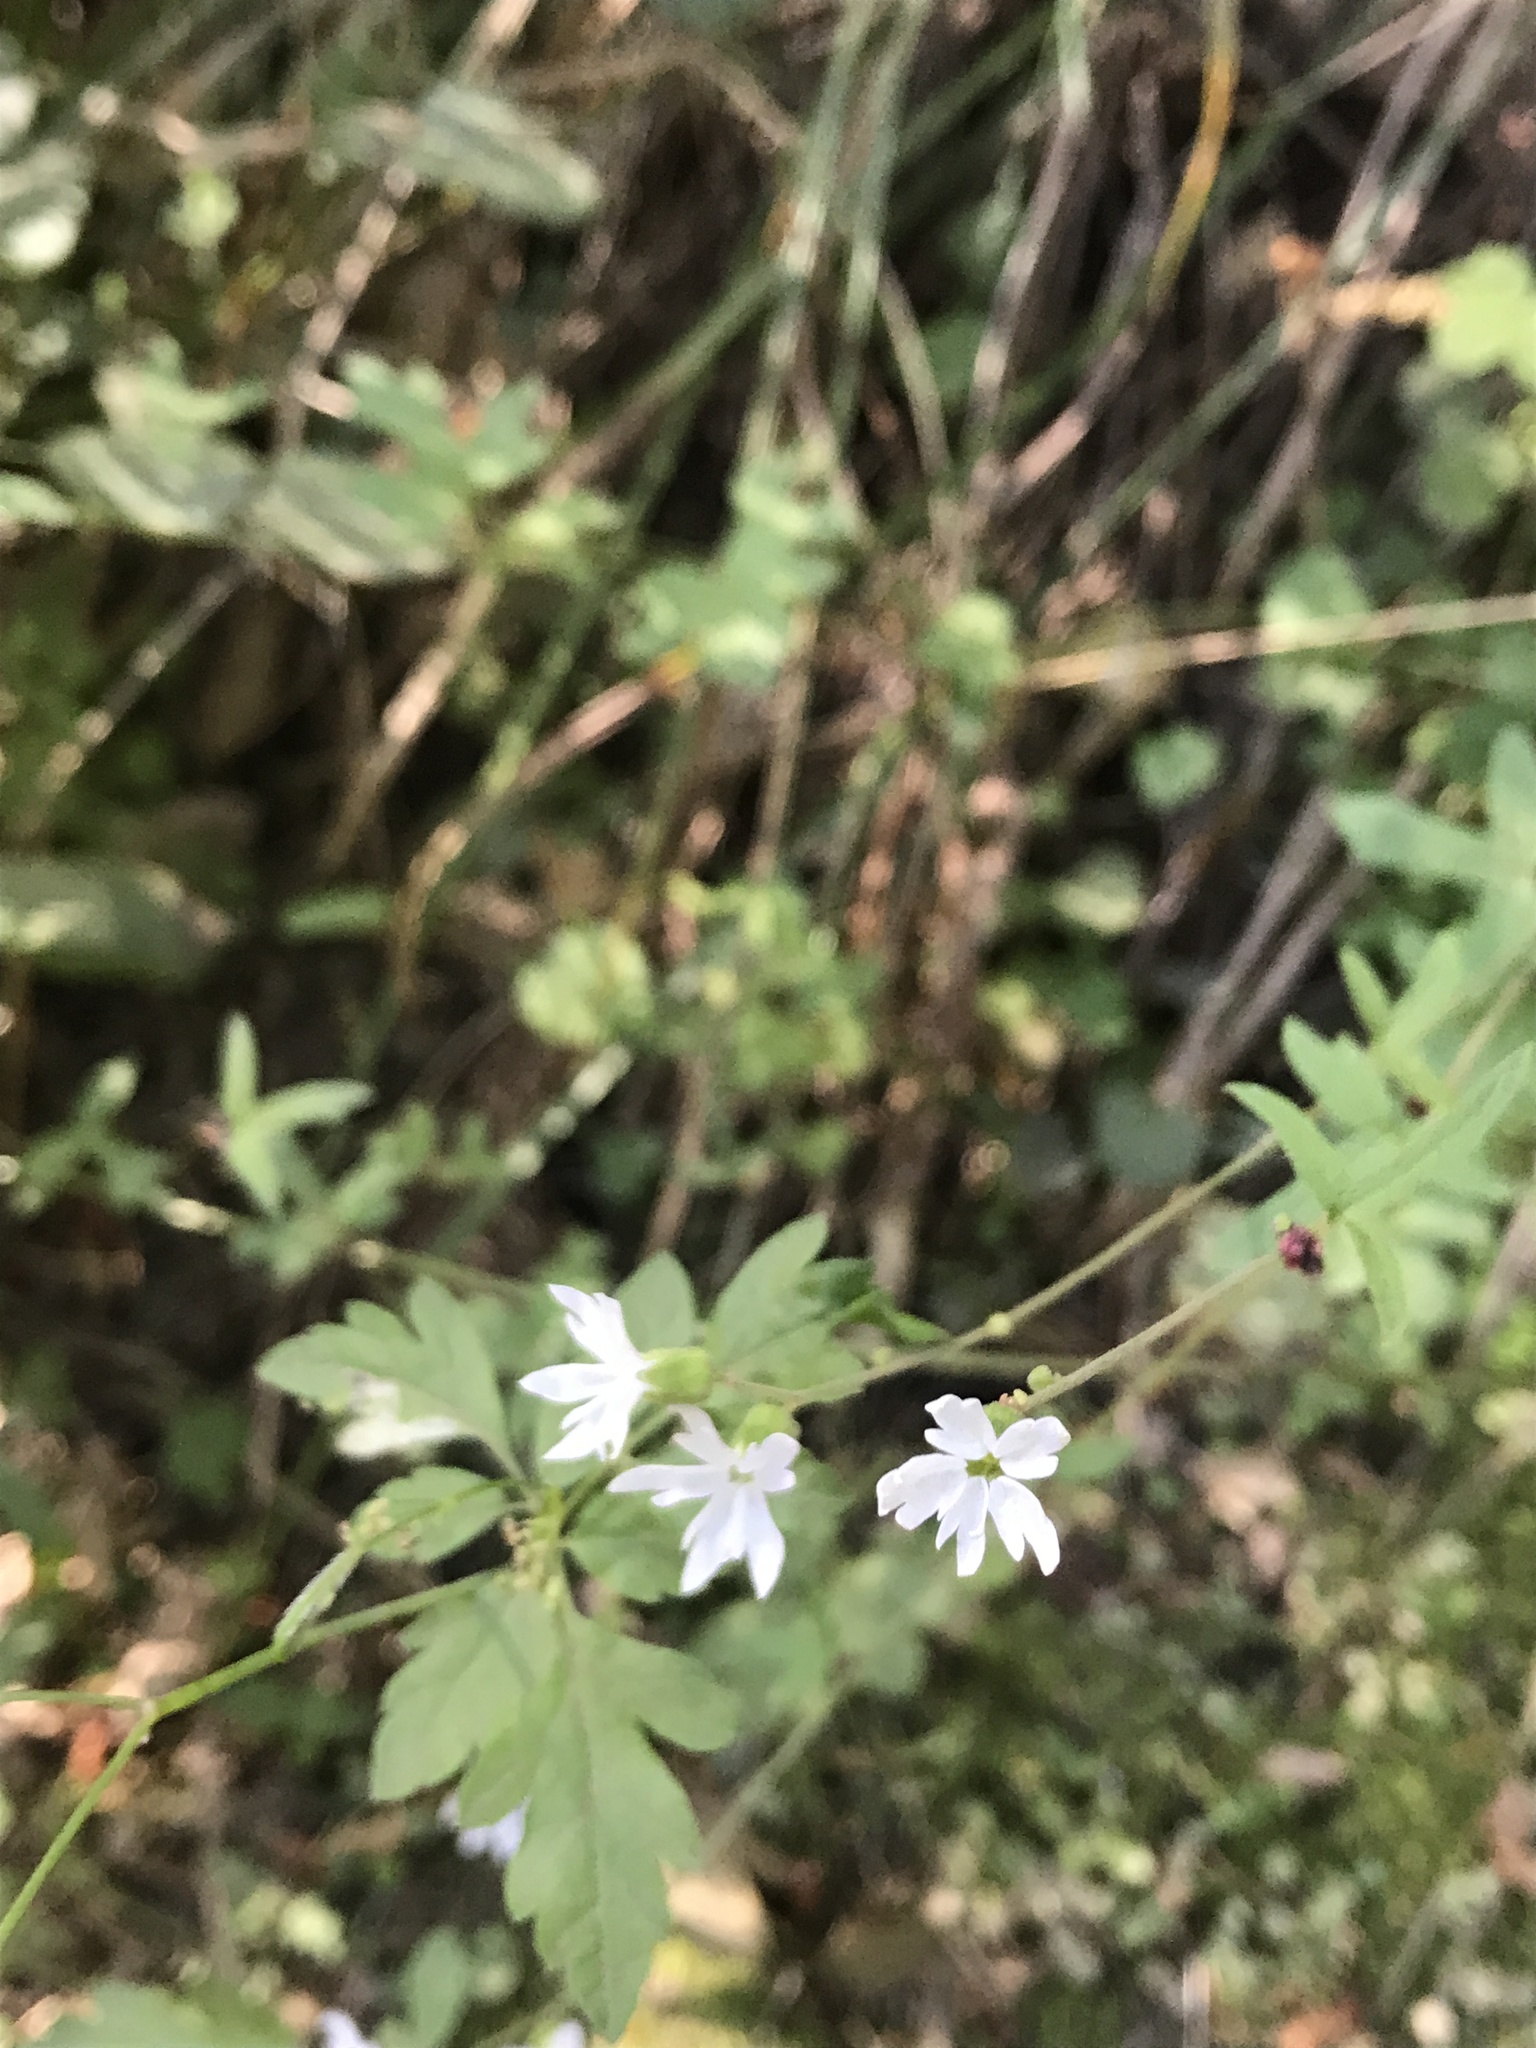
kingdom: Plantae
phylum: Tracheophyta
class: Magnoliopsida
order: Saxifragales
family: Saxifragaceae
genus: Lithophragma
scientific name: Lithophragma heterophyllum
